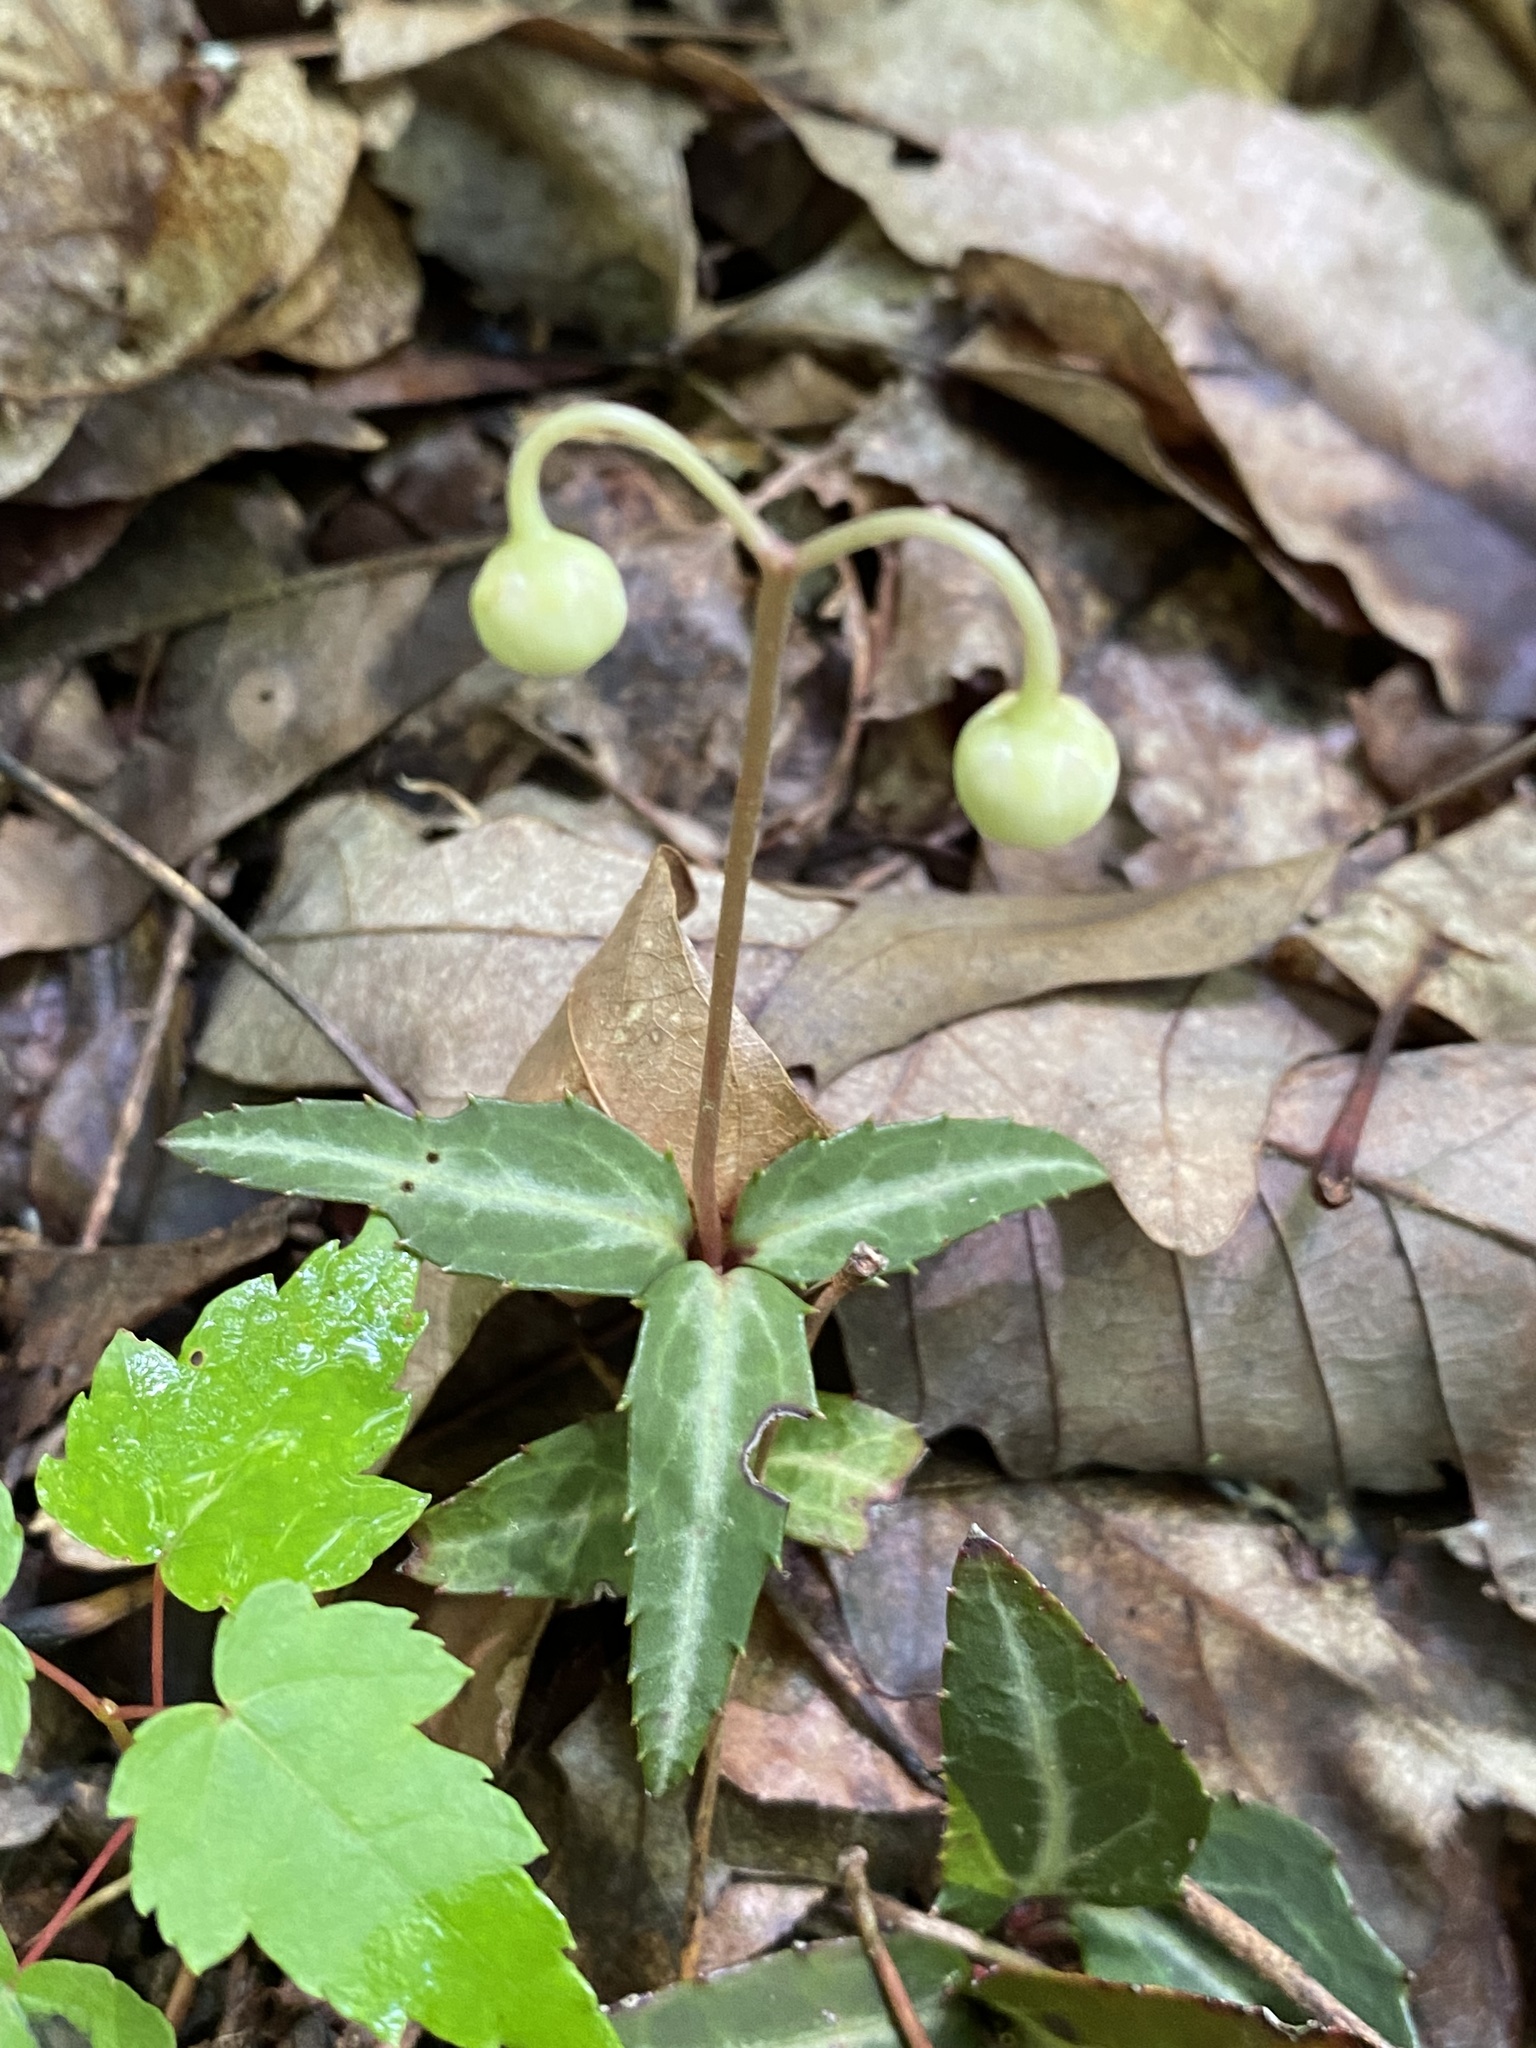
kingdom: Plantae
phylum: Tracheophyta
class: Magnoliopsida
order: Ericales
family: Ericaceae
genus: Chimaphila
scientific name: Chimaphila maculata
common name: Spotted pipsissewa
